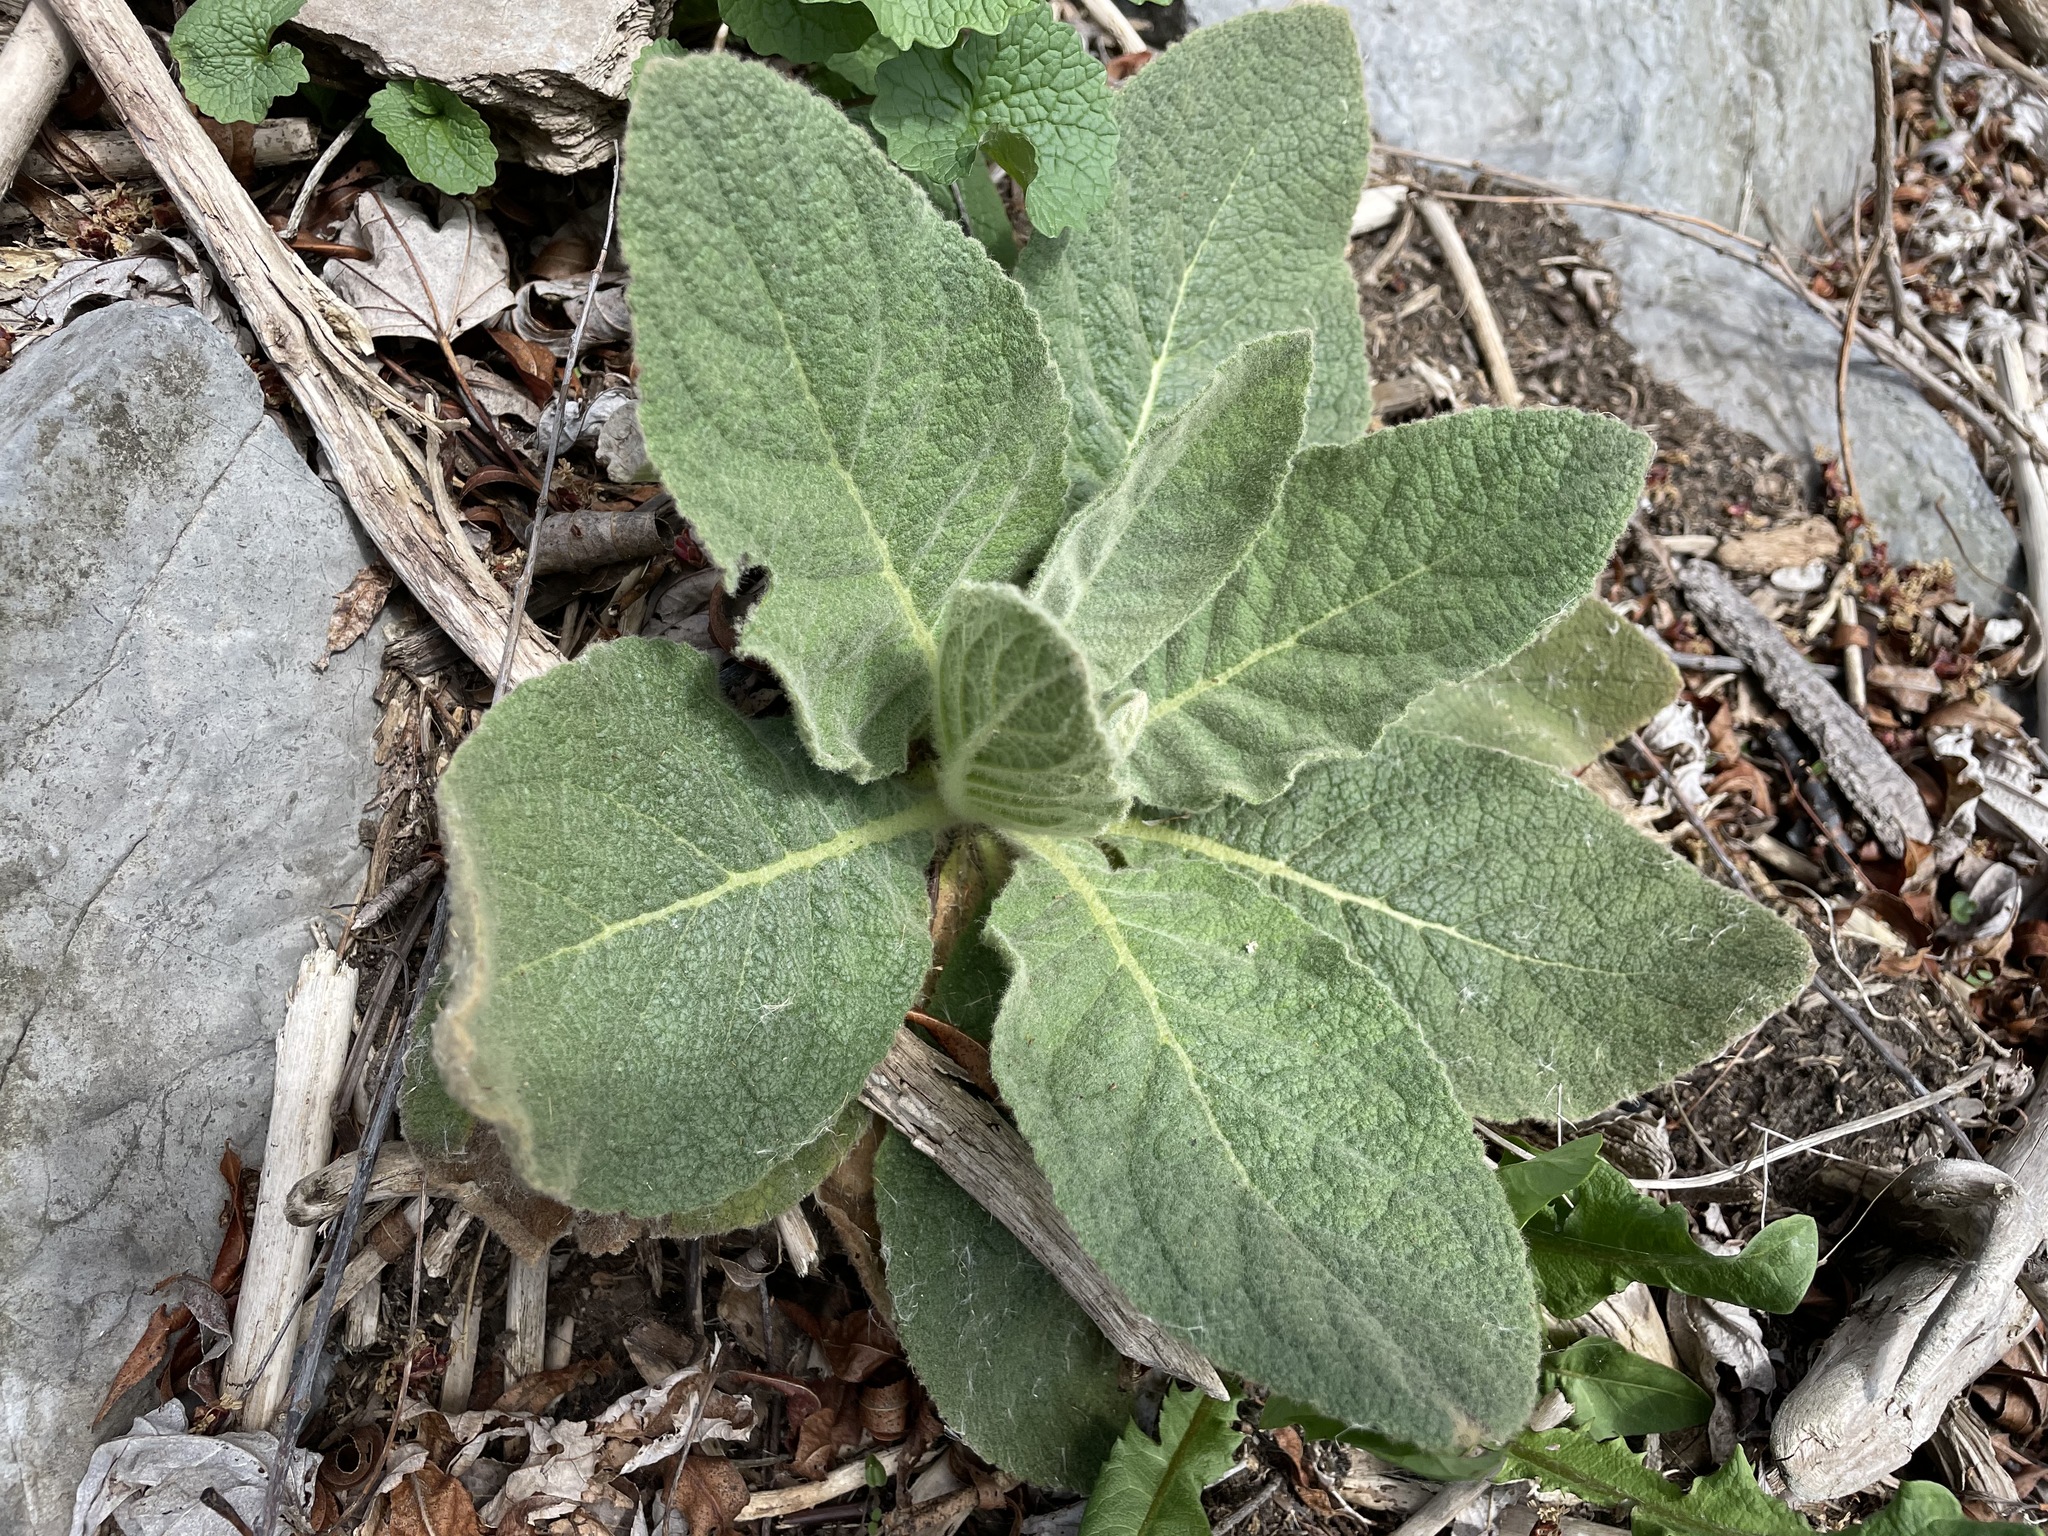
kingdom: Plantae
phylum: Tracheophyta
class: Magnoliopsida
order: Lamiales
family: Scrophulariaceae
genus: Verbascum
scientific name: Verbascum thapsus
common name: Common mullein
